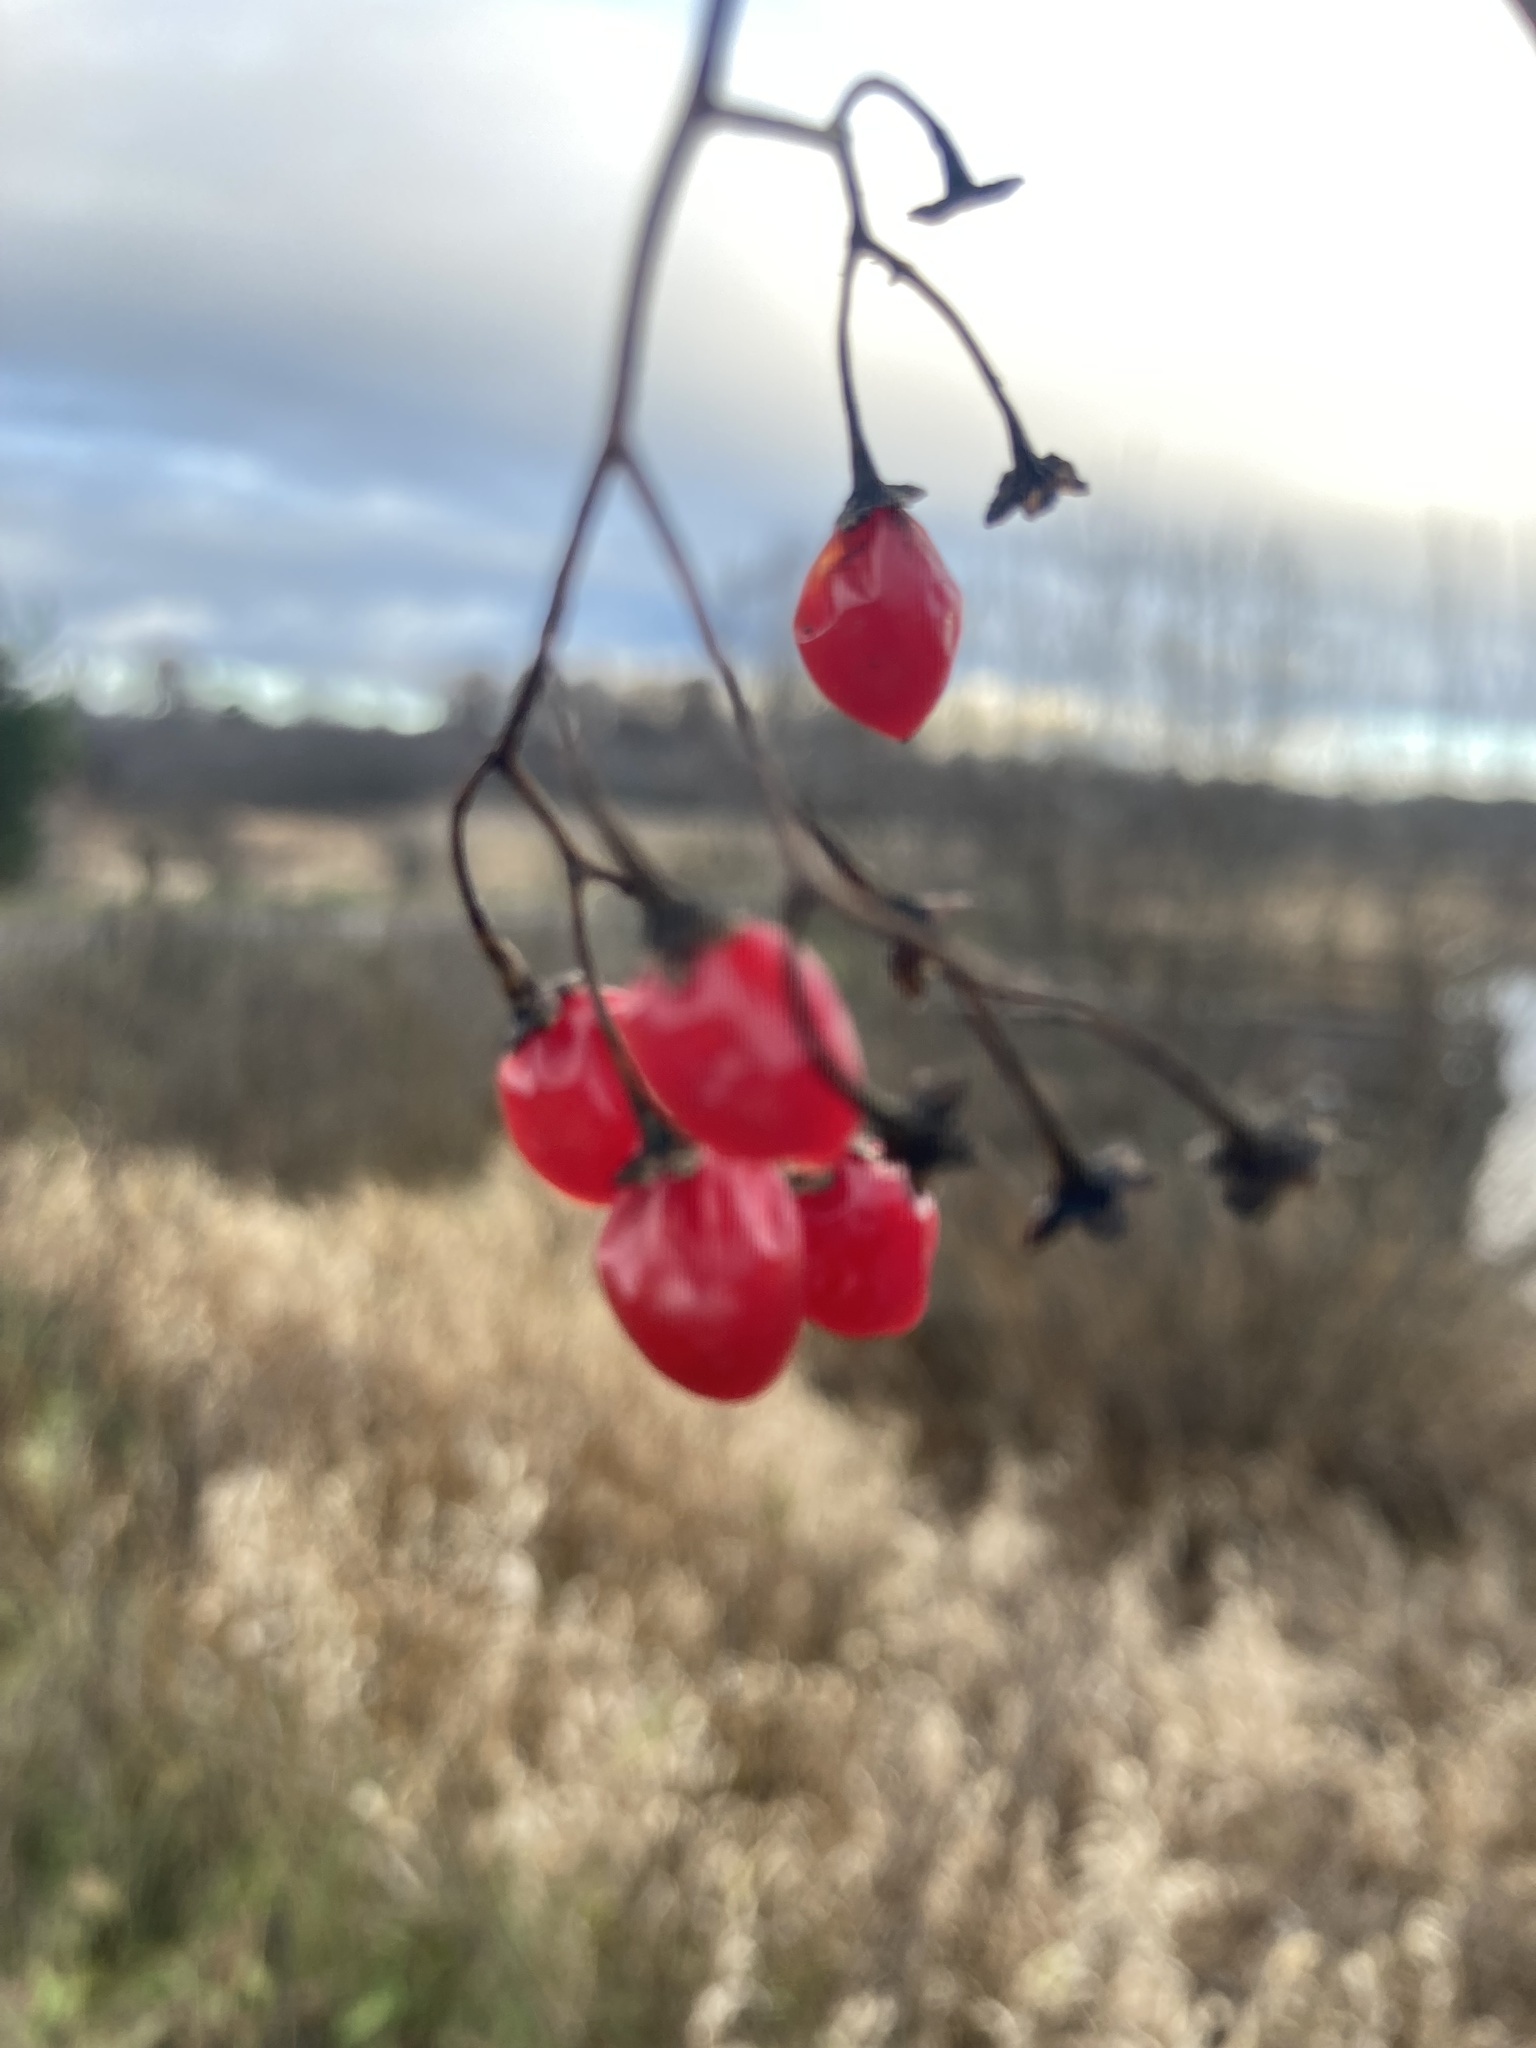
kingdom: Plantae
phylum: Tracheophyta
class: Magnoliopsida
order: Solanales
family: Solanaceae
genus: Solanum
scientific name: Solanum dulcamara
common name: Climbing nightshade
